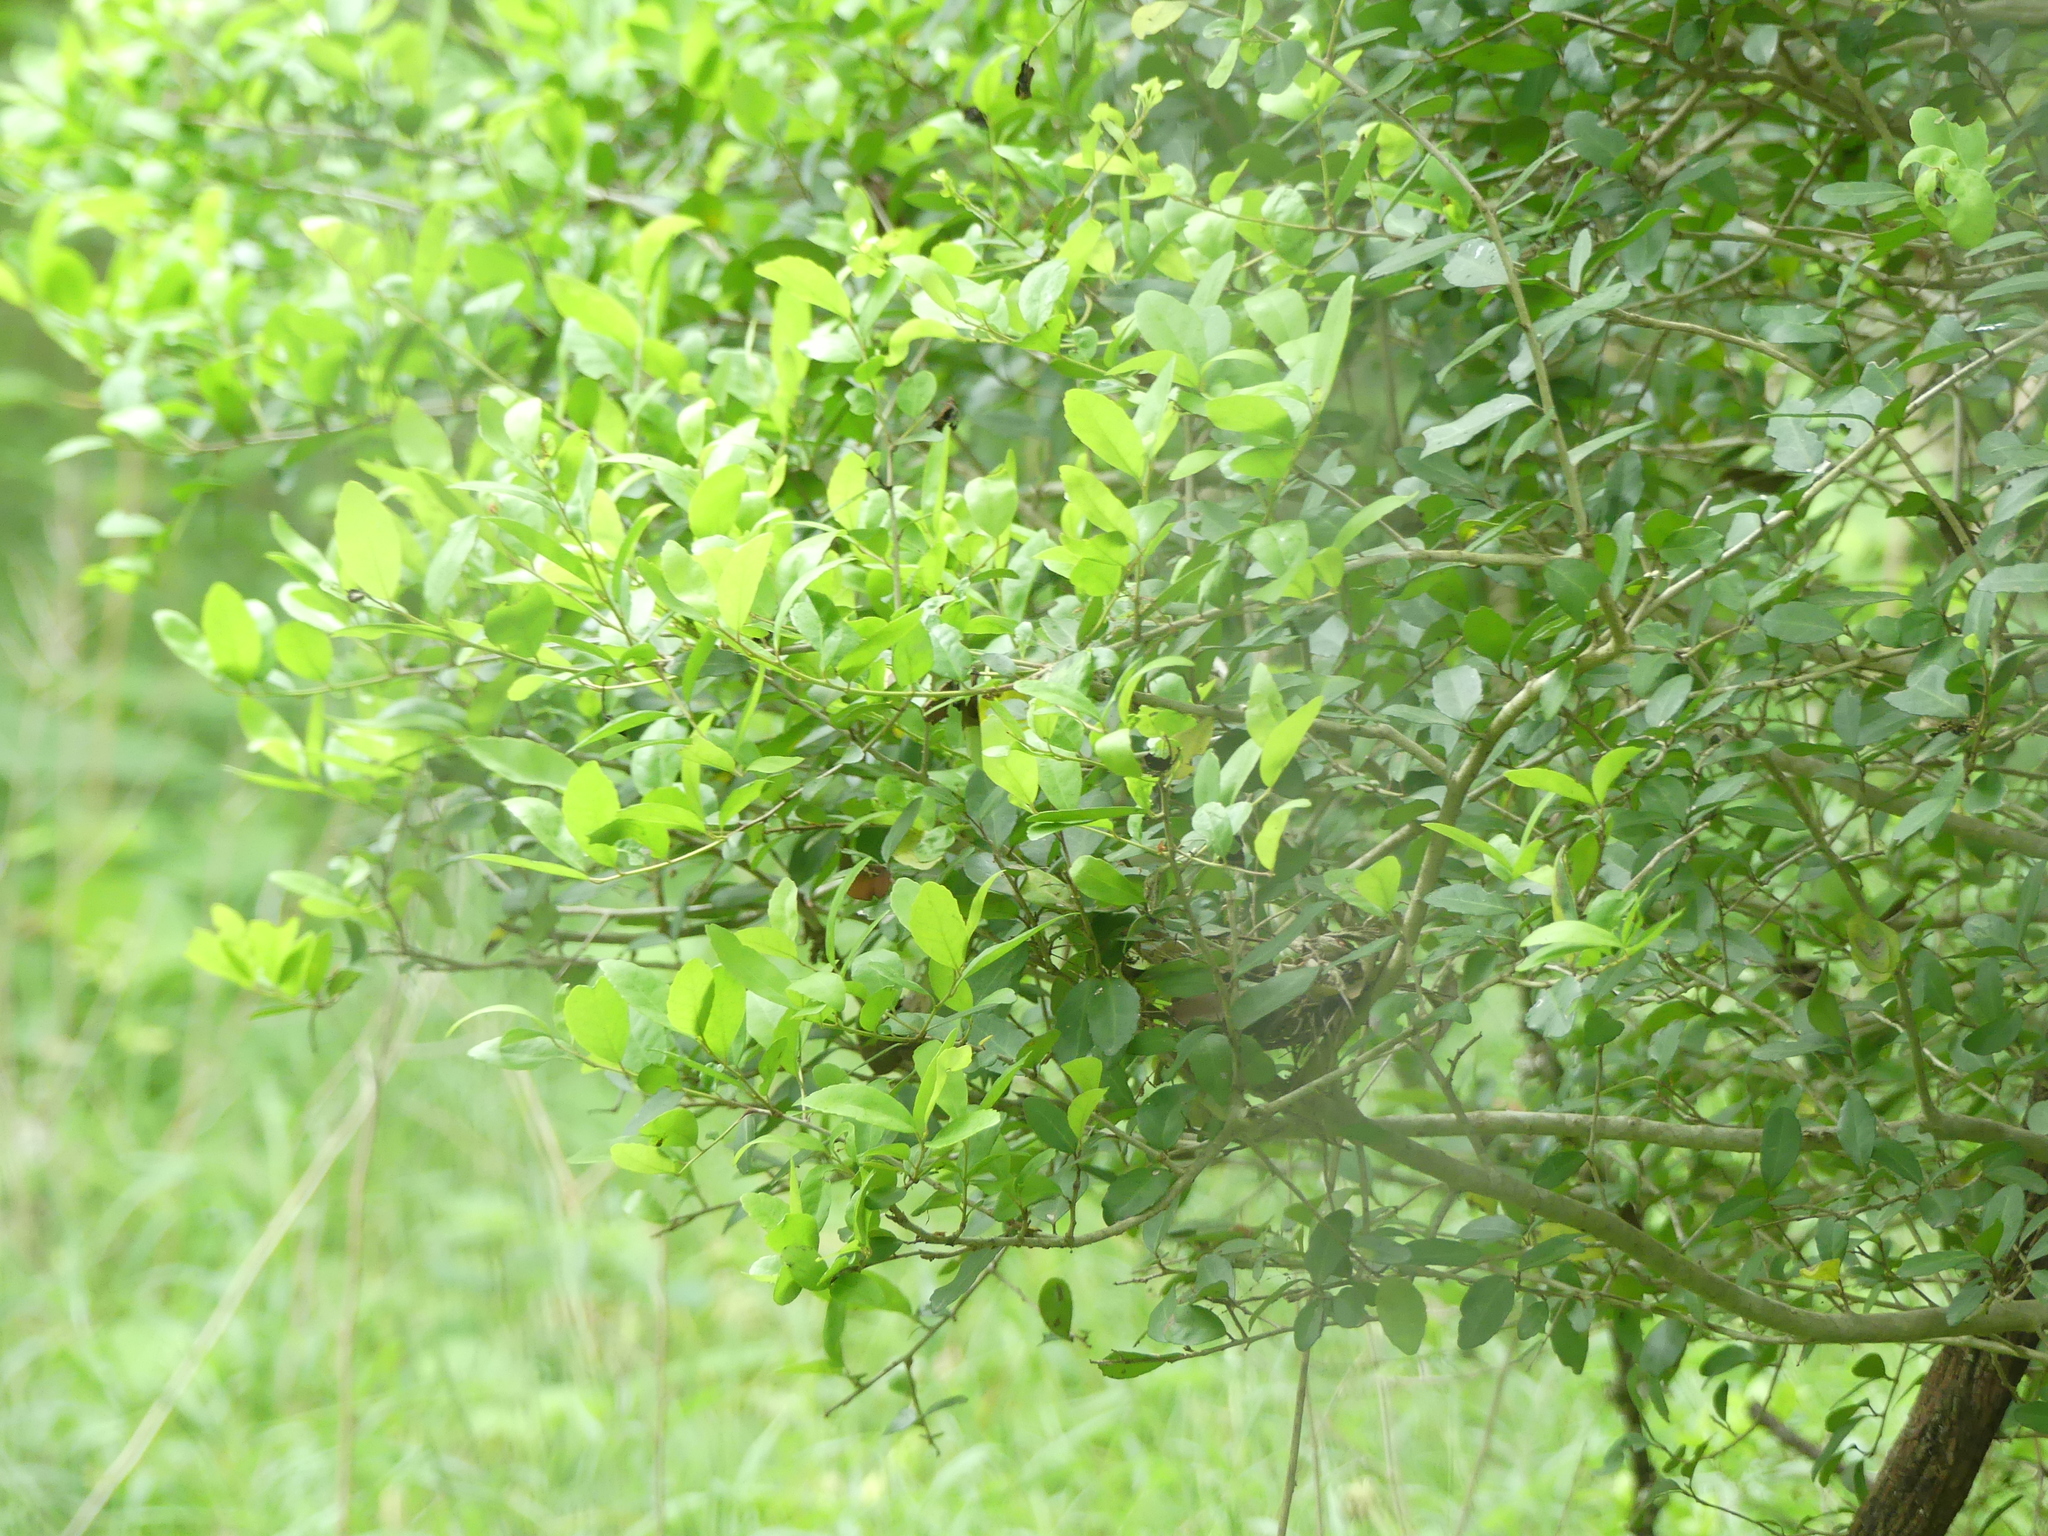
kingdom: Plantae
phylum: Tracheophyta
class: Magnoliopsida
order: Aquifoliales
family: Aquifoliaceae
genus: Ilex
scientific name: Ilex vomitoria
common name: Yaupon holly
